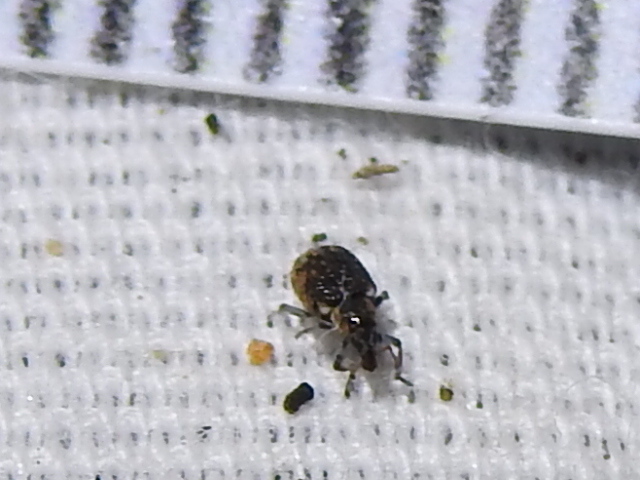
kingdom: Animalia
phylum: Arthropoda
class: Insecta
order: Coleoptera
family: Brachyceridae
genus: Stenopelmus
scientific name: Stenopelmus rufinasus
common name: Azolla weevil
